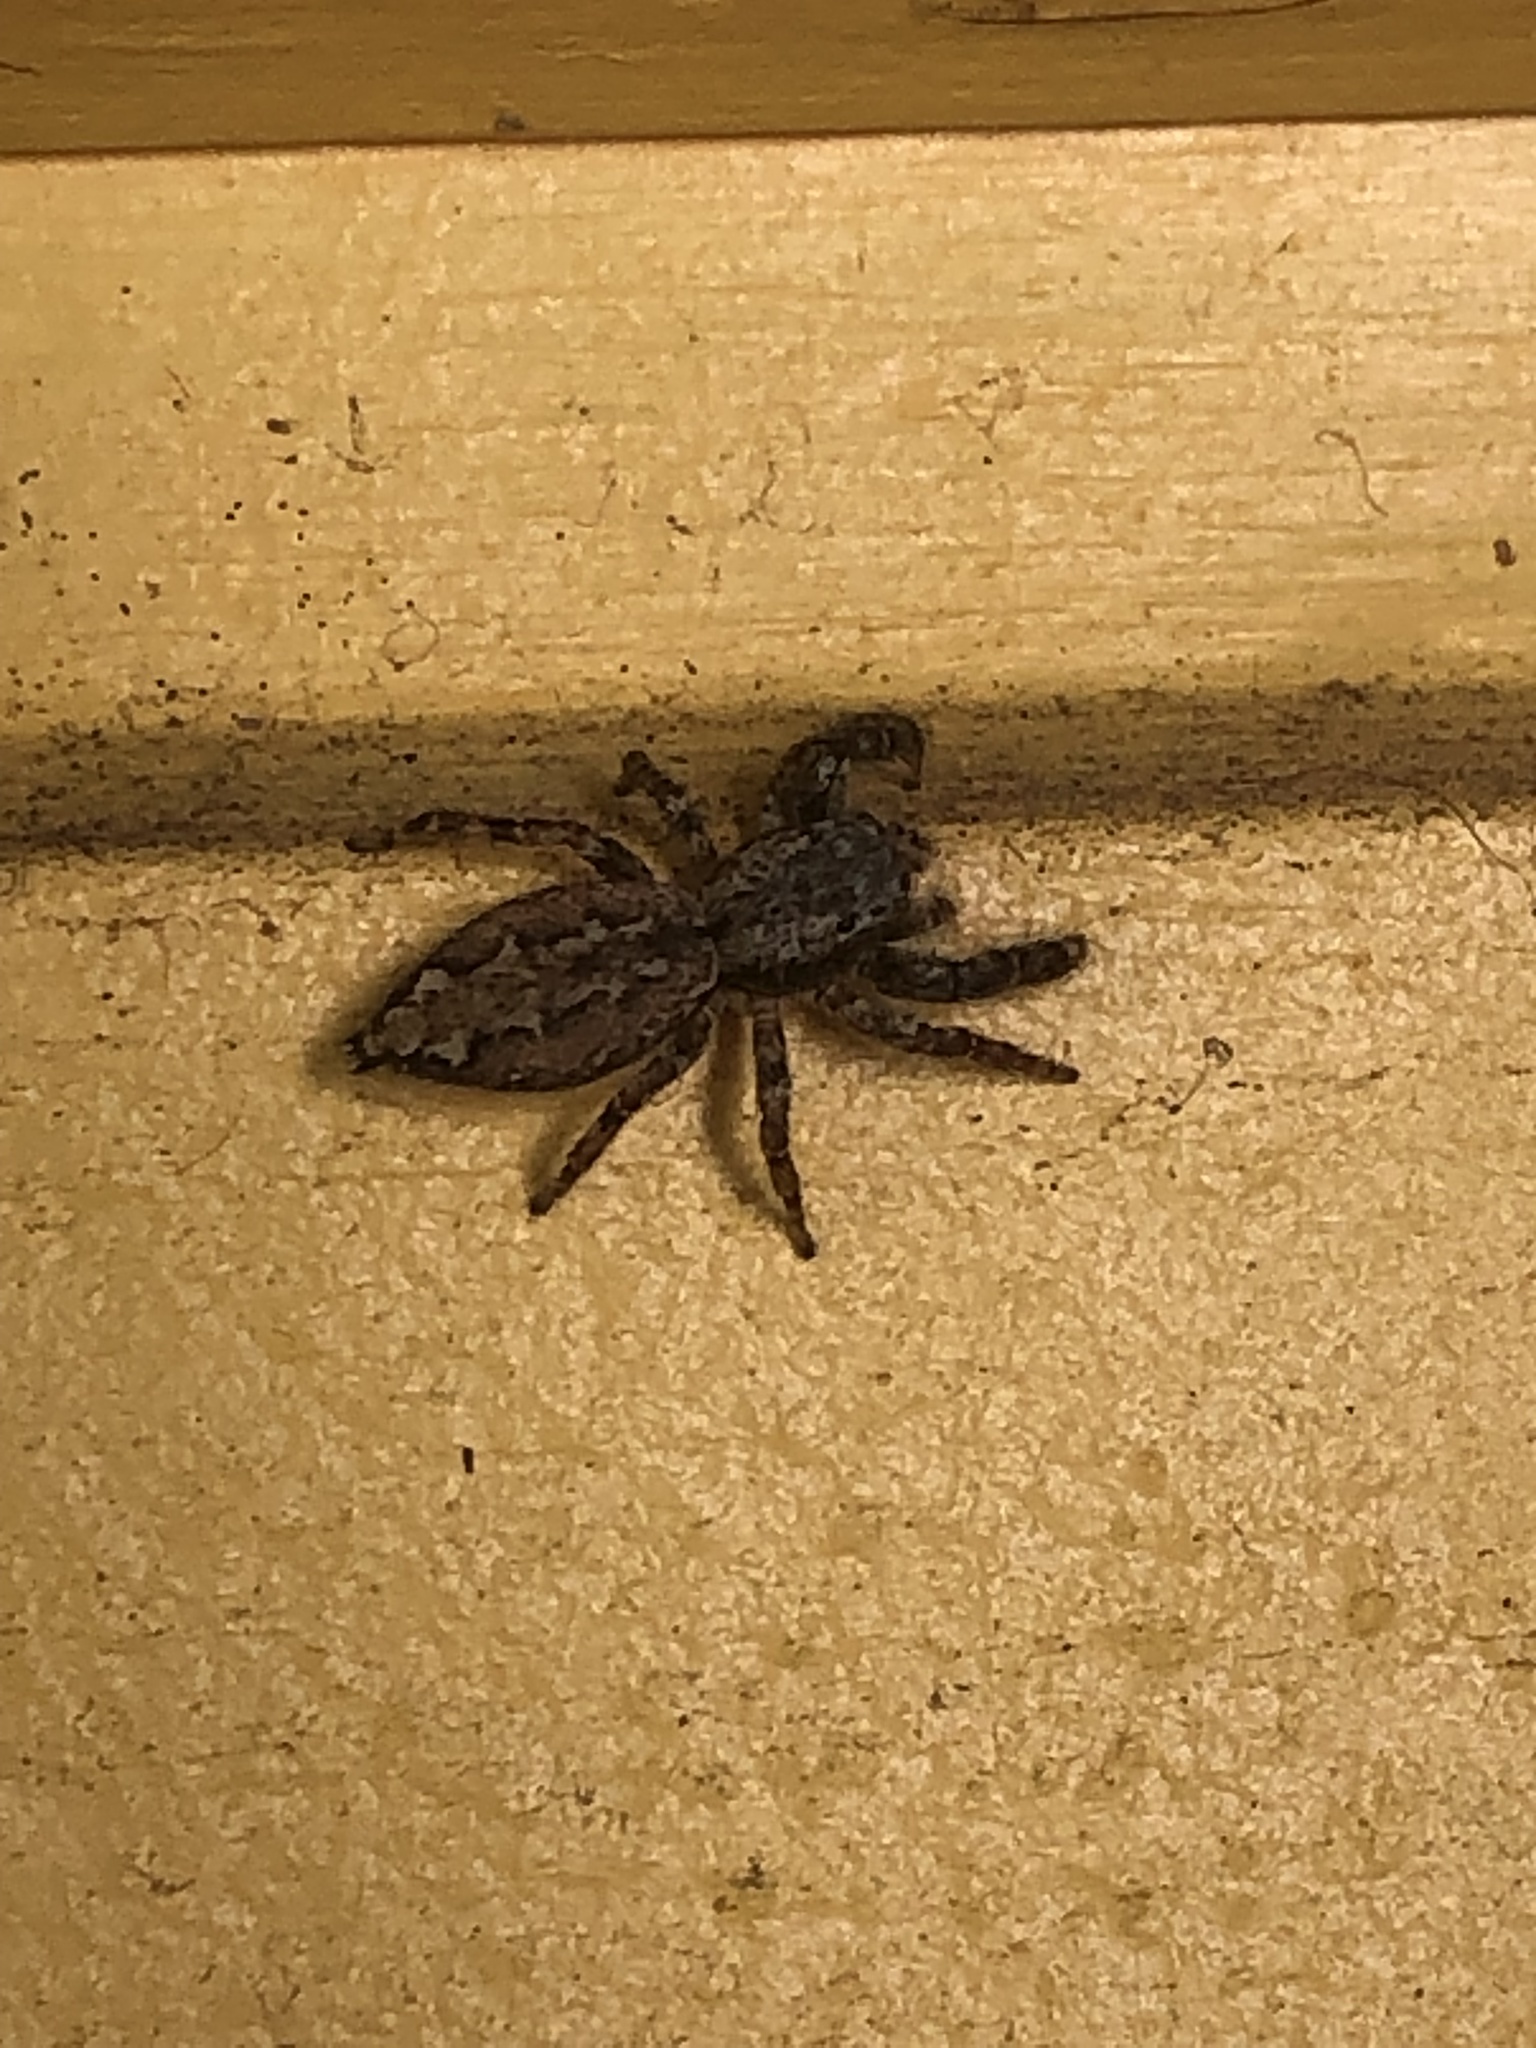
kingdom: Animalia
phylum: Arthropoda
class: Arachnida
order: Araneae
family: Salticidae
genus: Marpissa
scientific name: Marpissa muscosa
